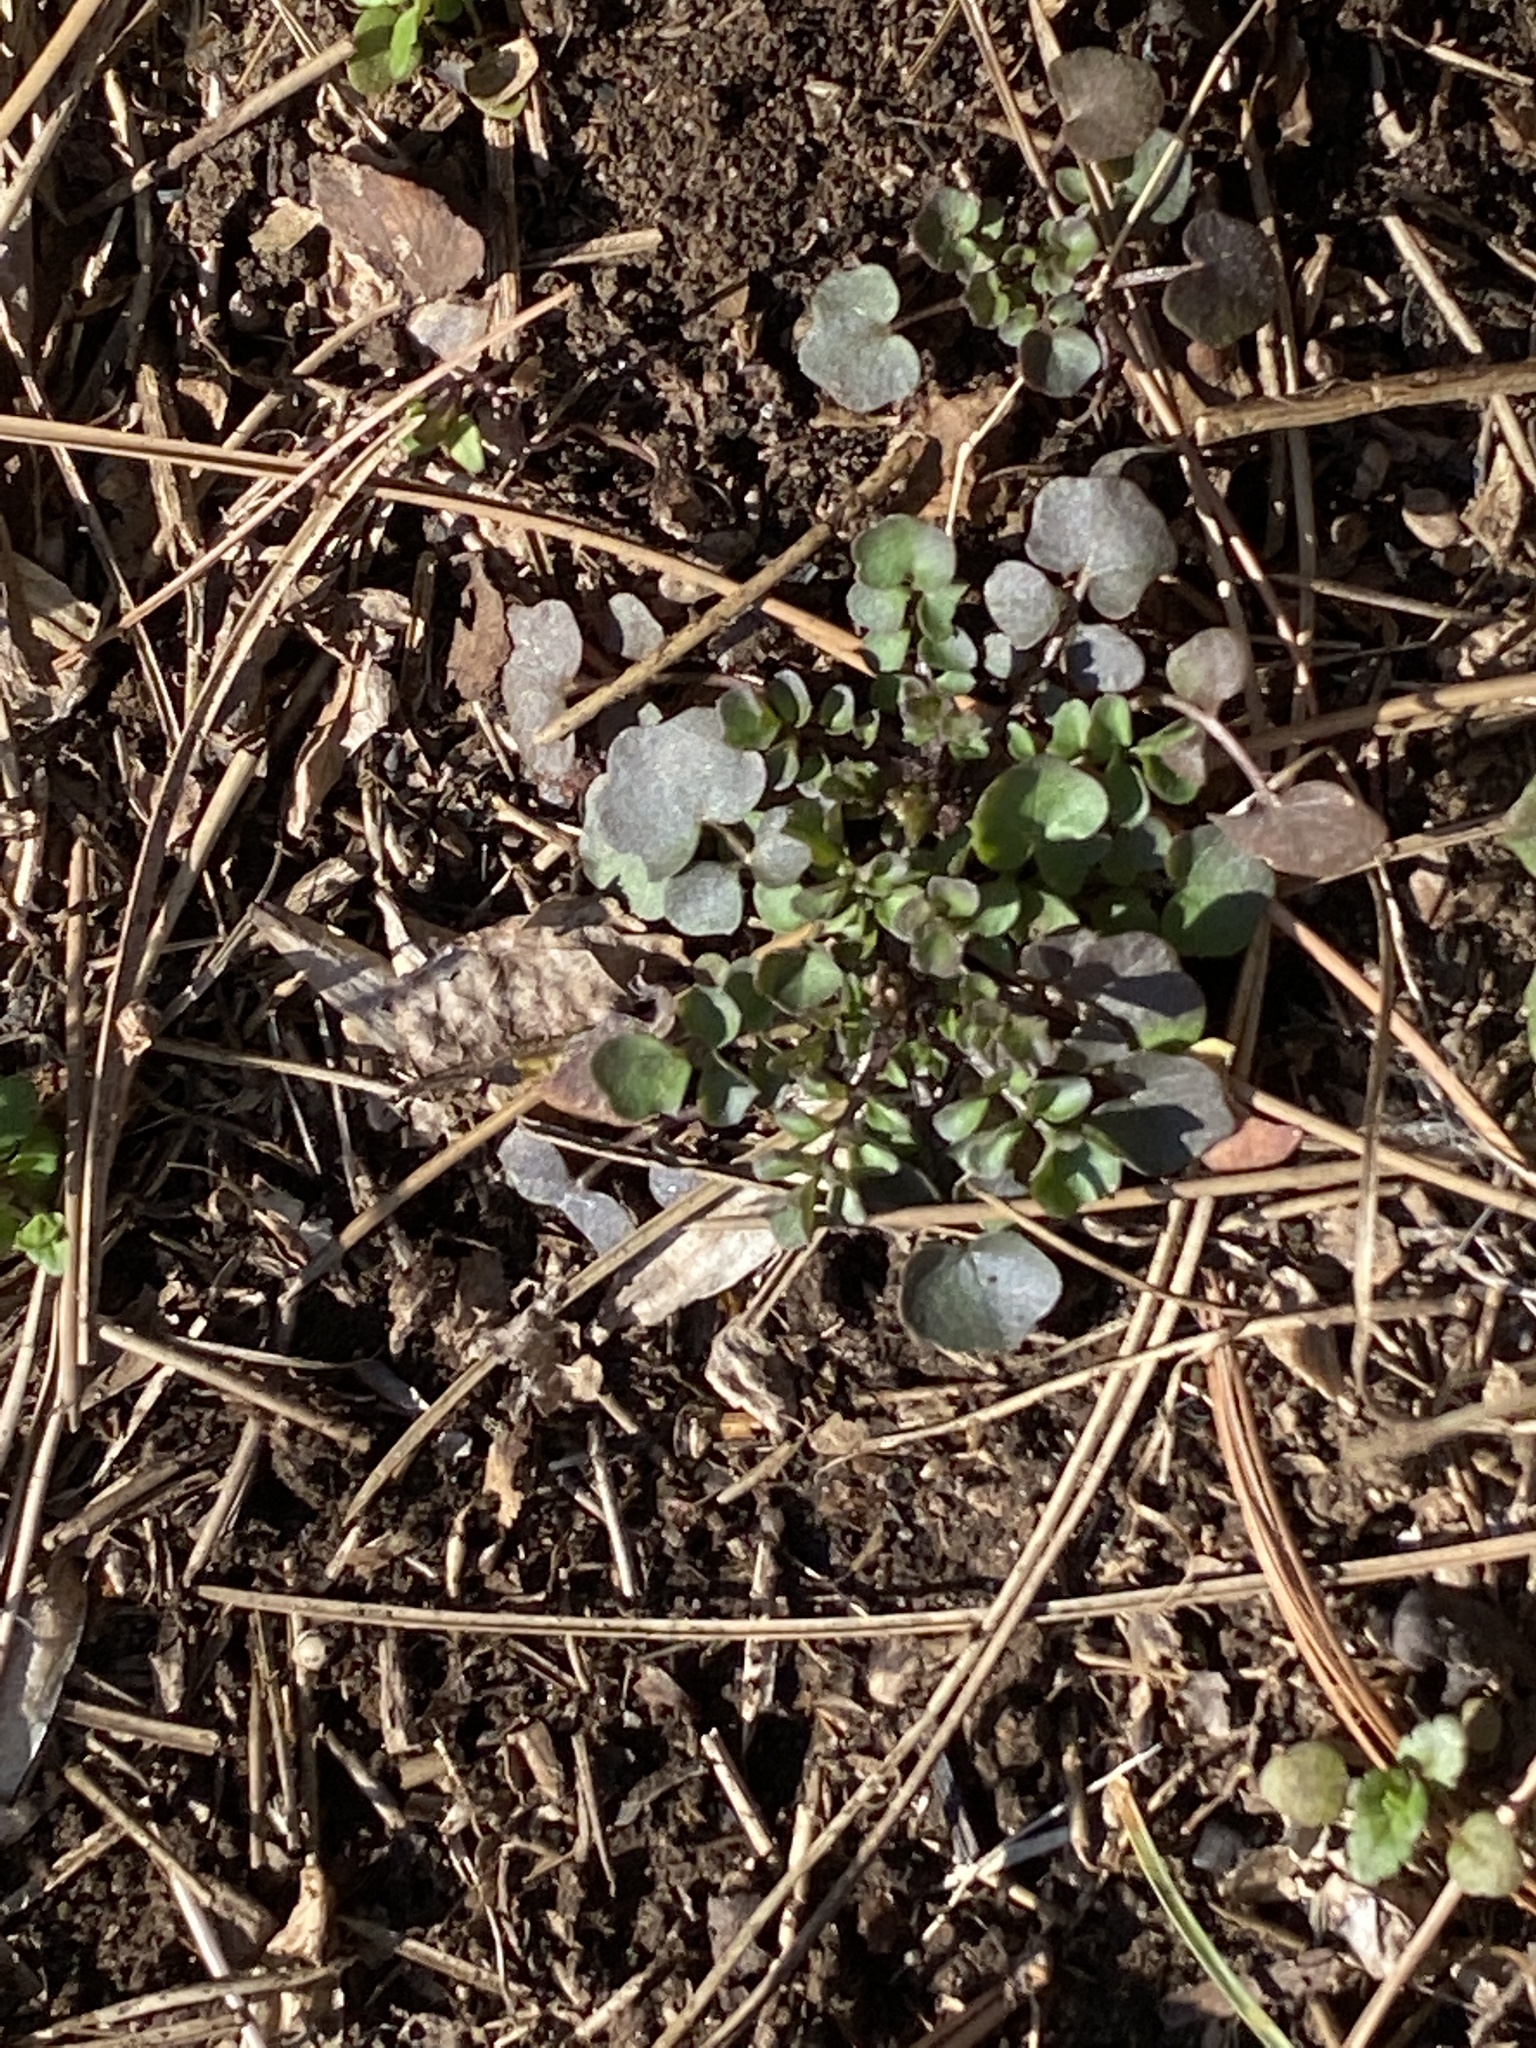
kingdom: Plantae
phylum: Tracheophyta
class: Magnoliopsida
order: Brassicales
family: Brassicaceae
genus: Cardamine
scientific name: Cardamine hirsuta
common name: Hairy bittercress
